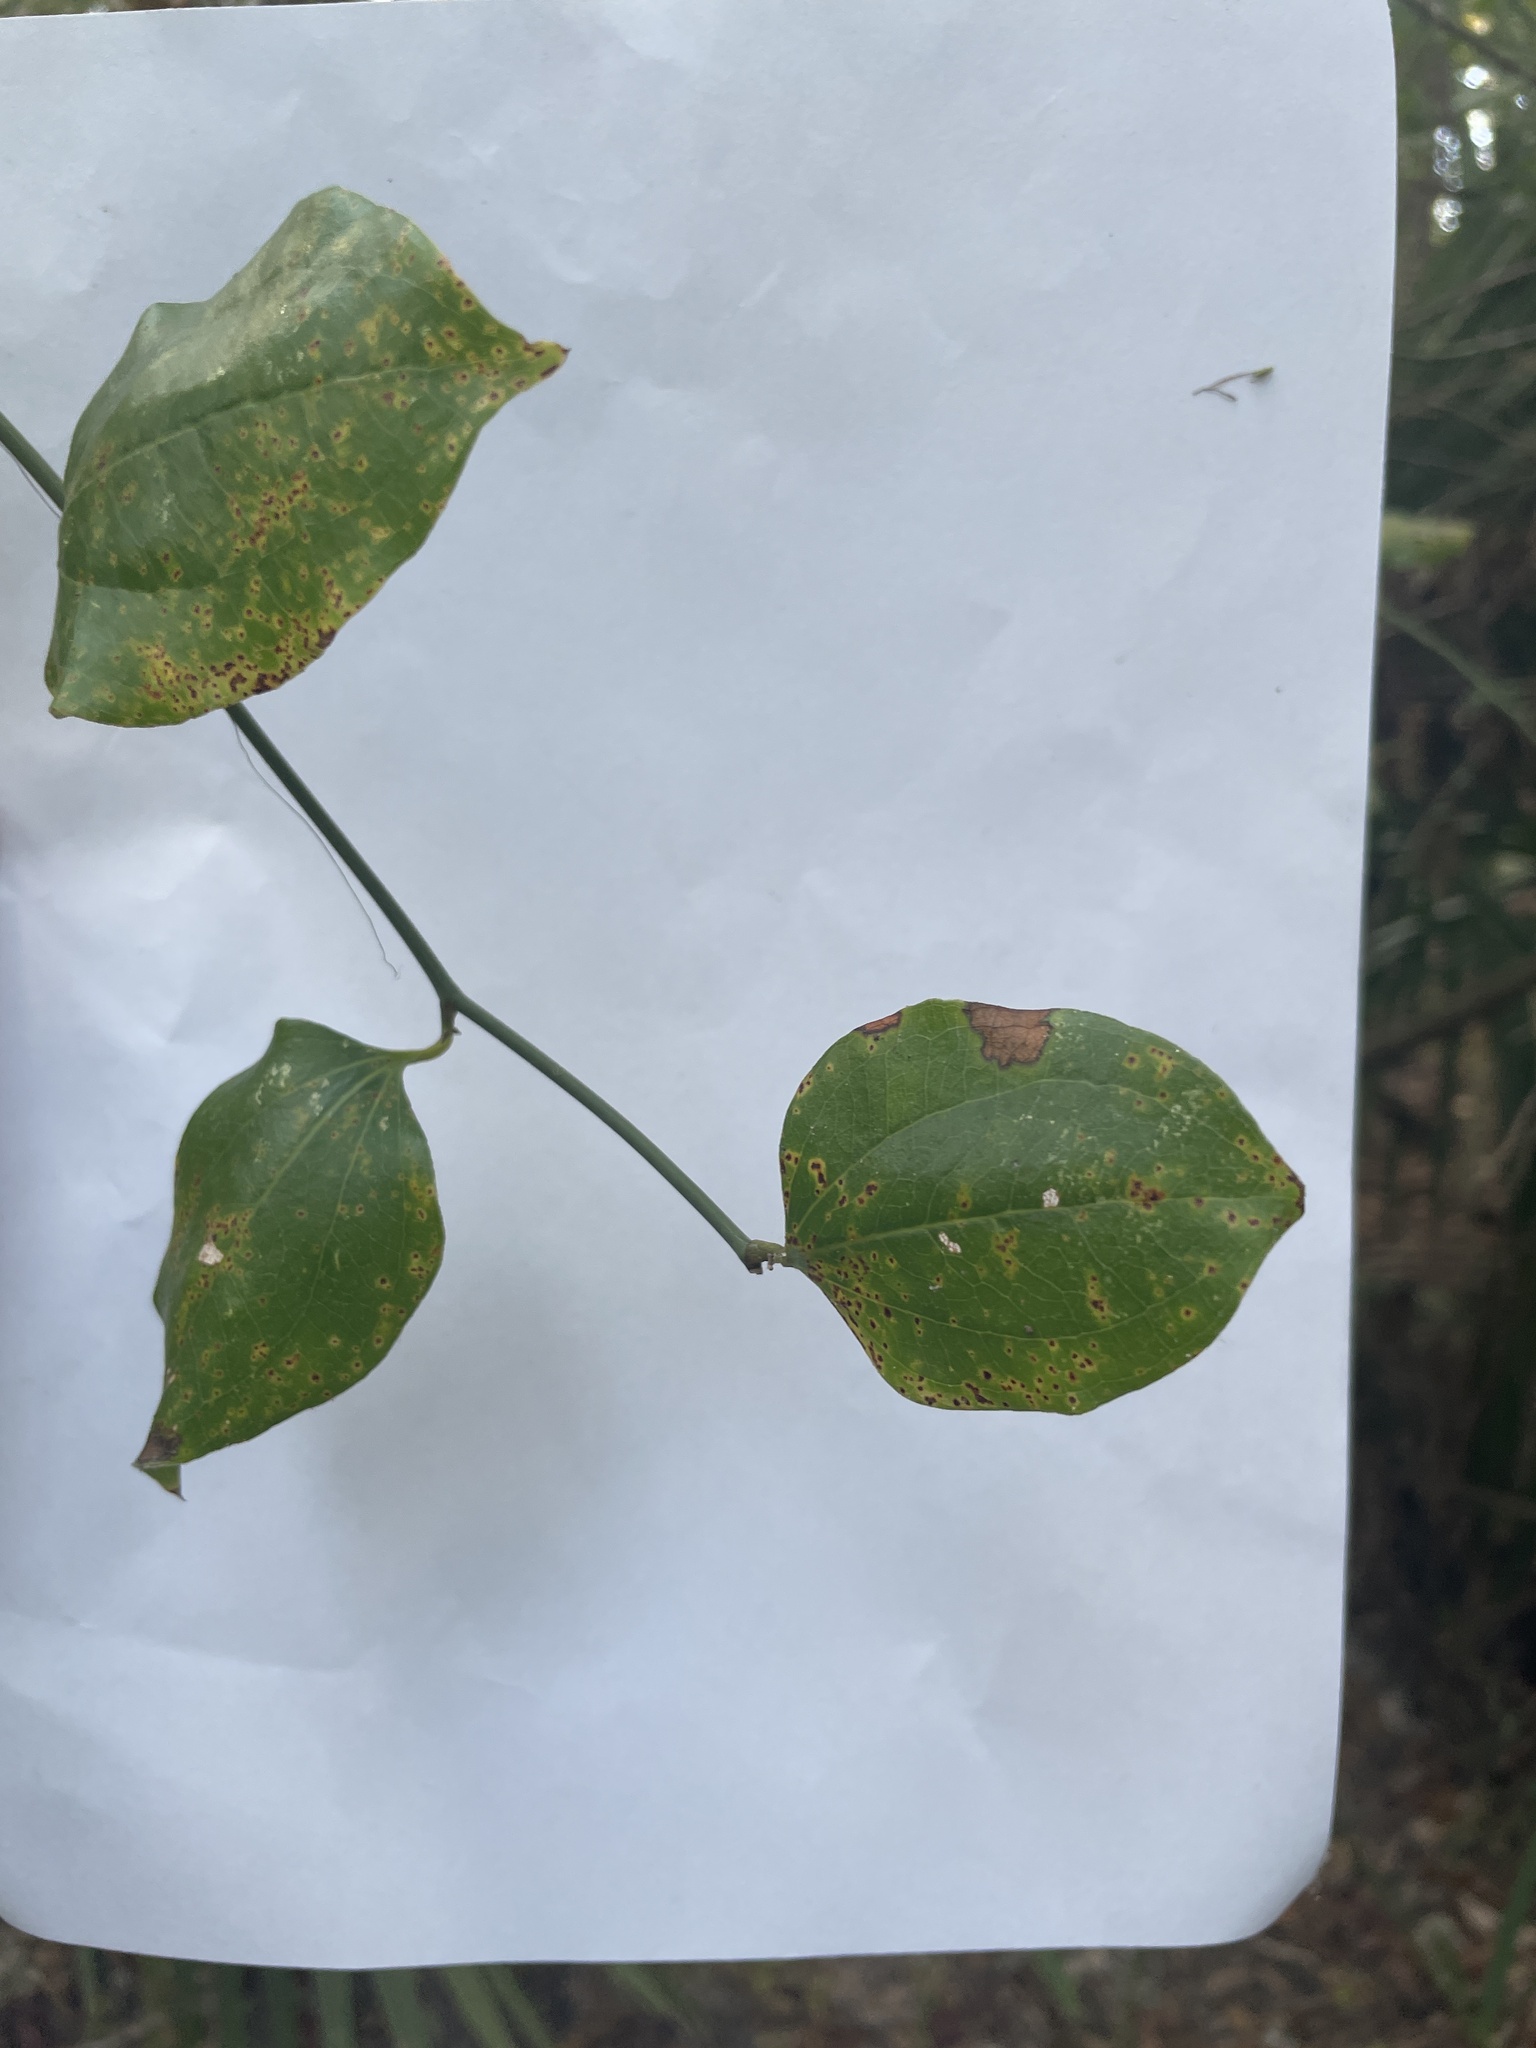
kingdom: Plantae
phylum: Tracheophyta
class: Liliopsida
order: Liliales
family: Smilacaceae
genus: Smilax
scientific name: Smilax rotundifolia
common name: Bullbriar
